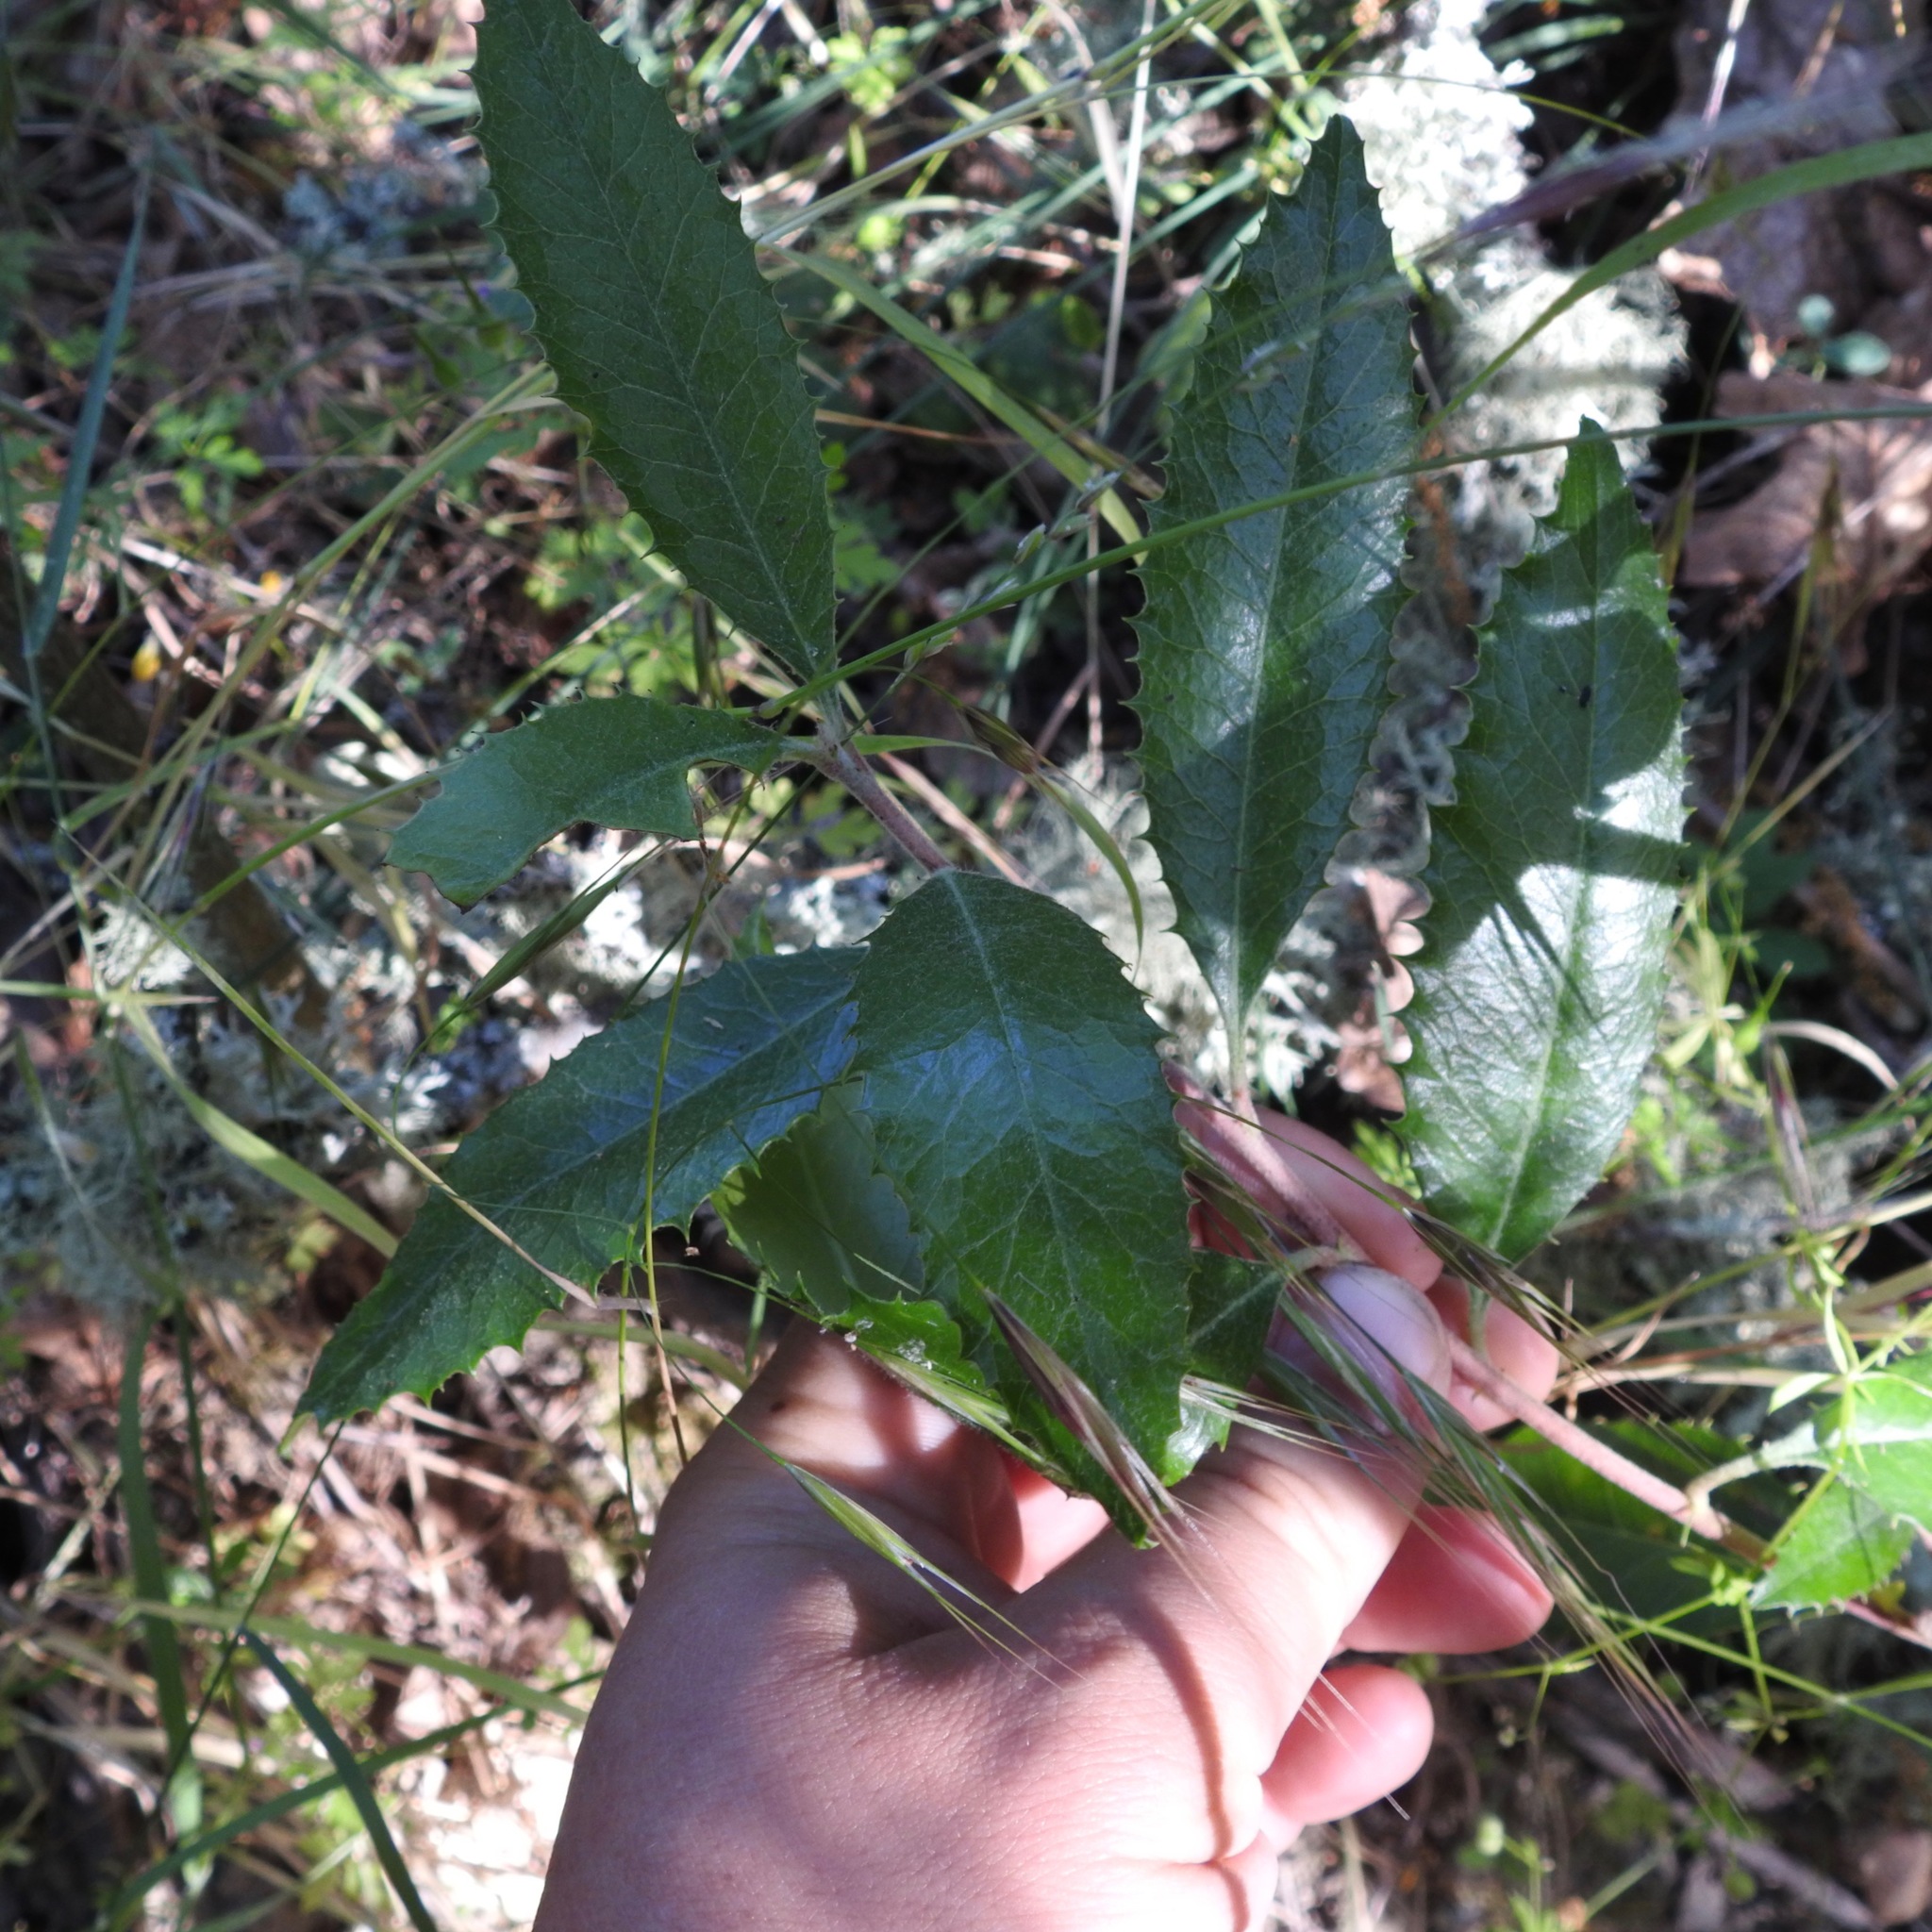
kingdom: Plantae
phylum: Tracheophyta
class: Magnoliopsida
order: Rosales
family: Rosaceae
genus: Heteromeles
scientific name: Heteromeles arbutifolia
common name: California-holly
